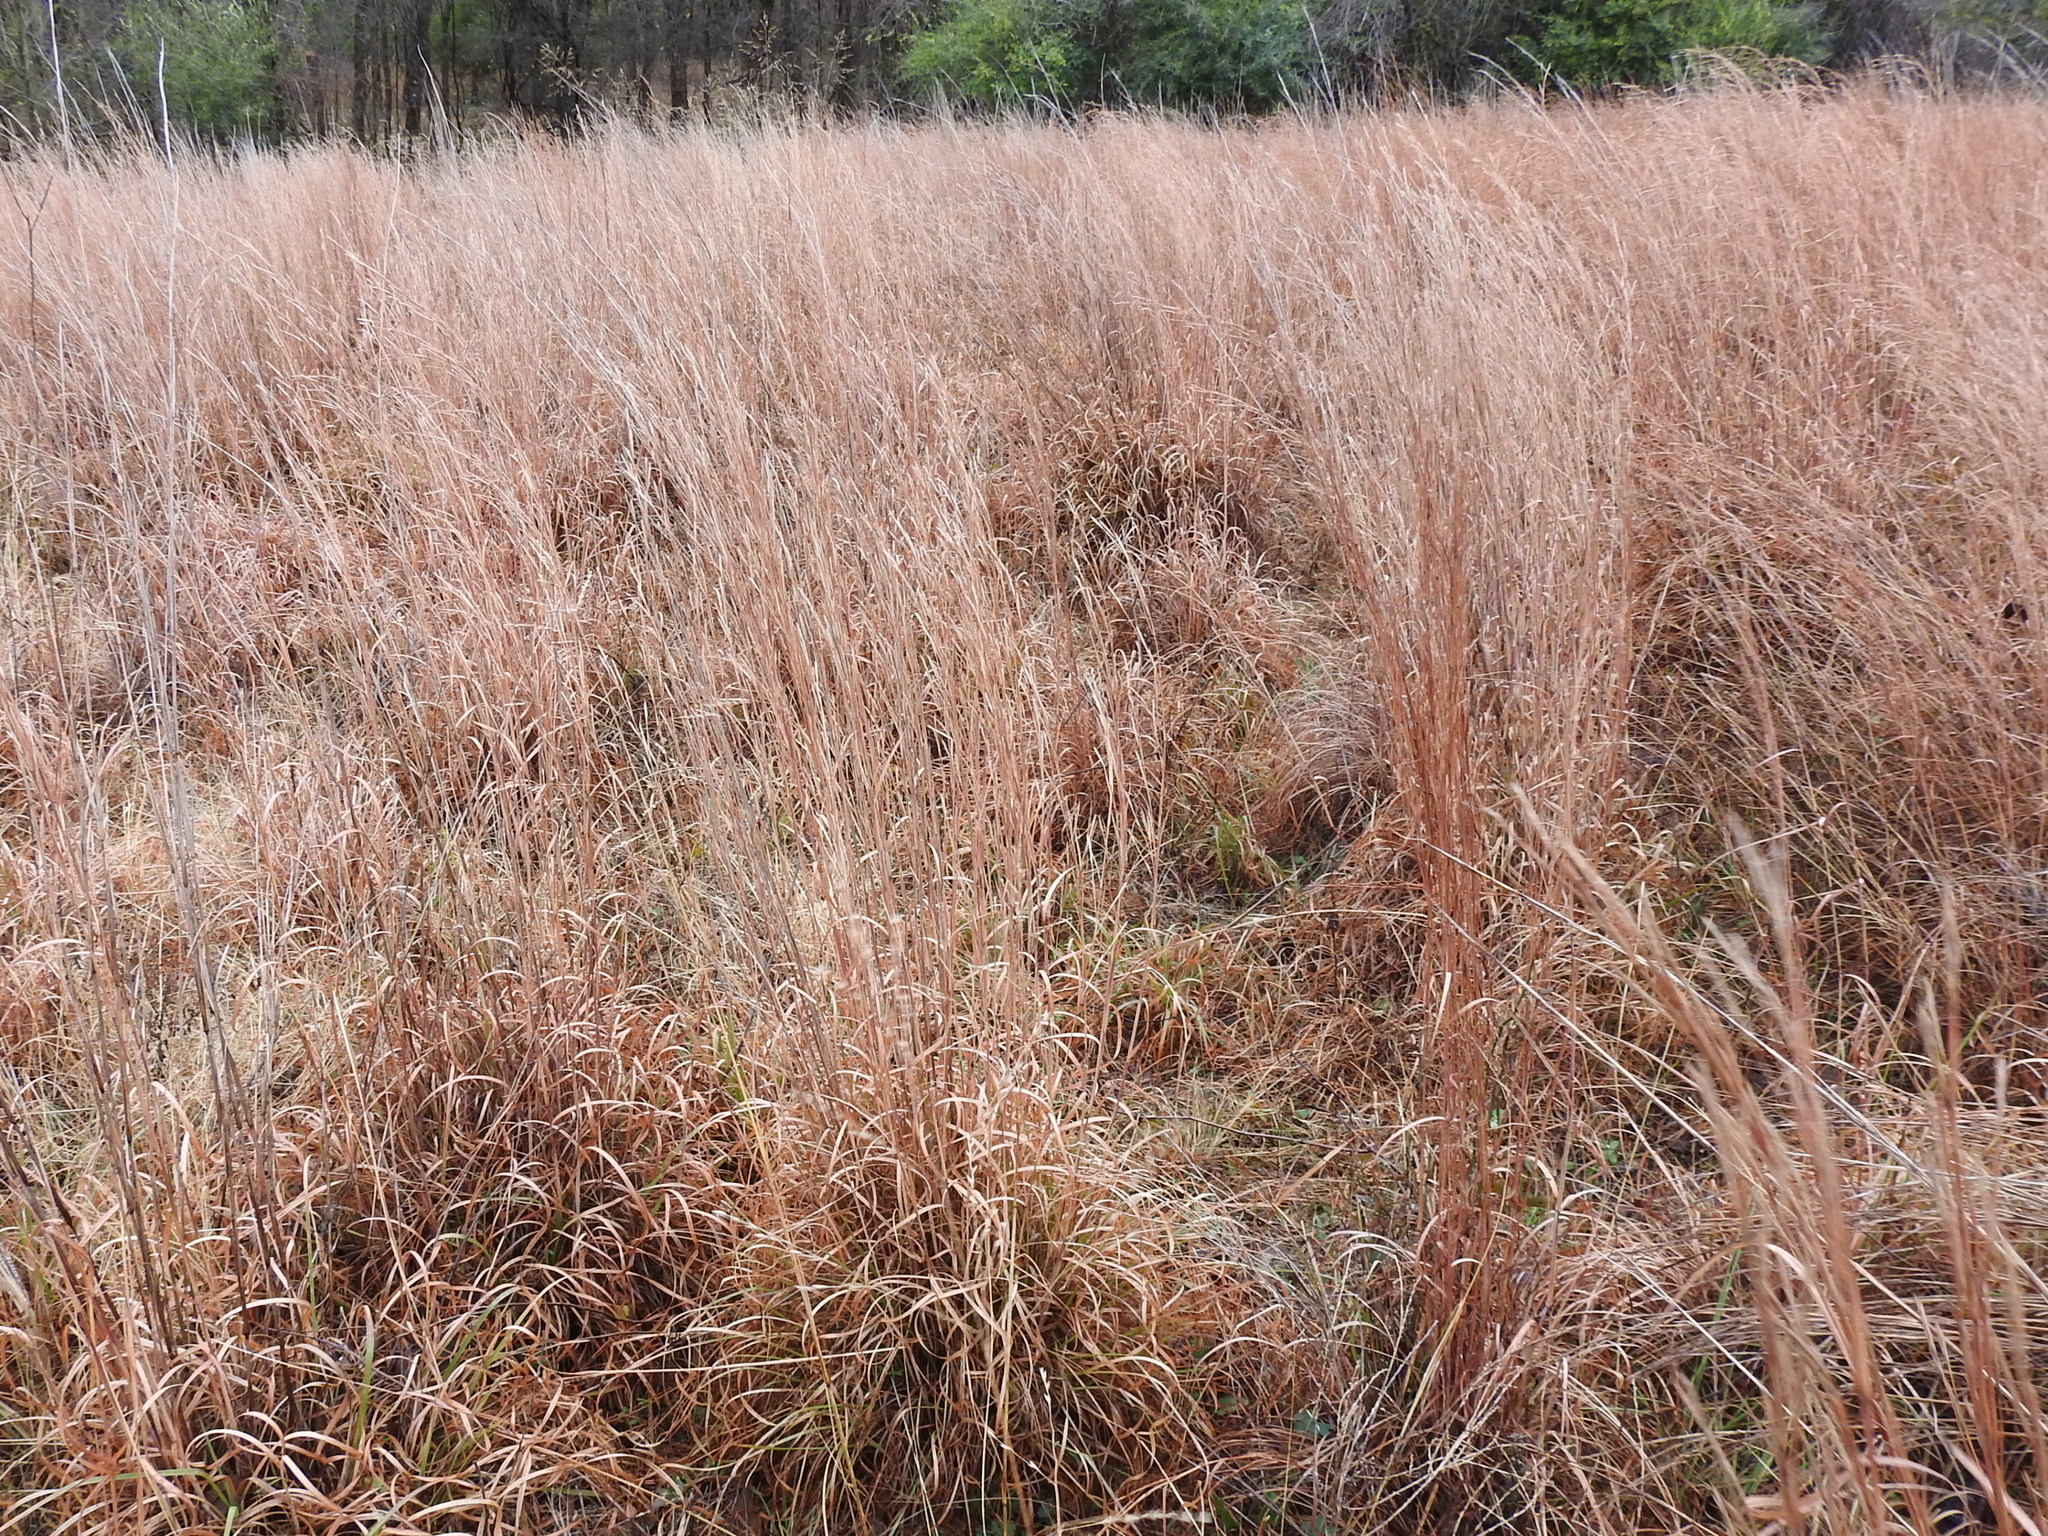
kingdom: Plantae
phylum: Tracheophyta
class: Liliopsida
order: Poales
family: Poaceae
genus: Schizachyrium
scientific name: Schizachyrium scoparium
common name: Little bluestem
